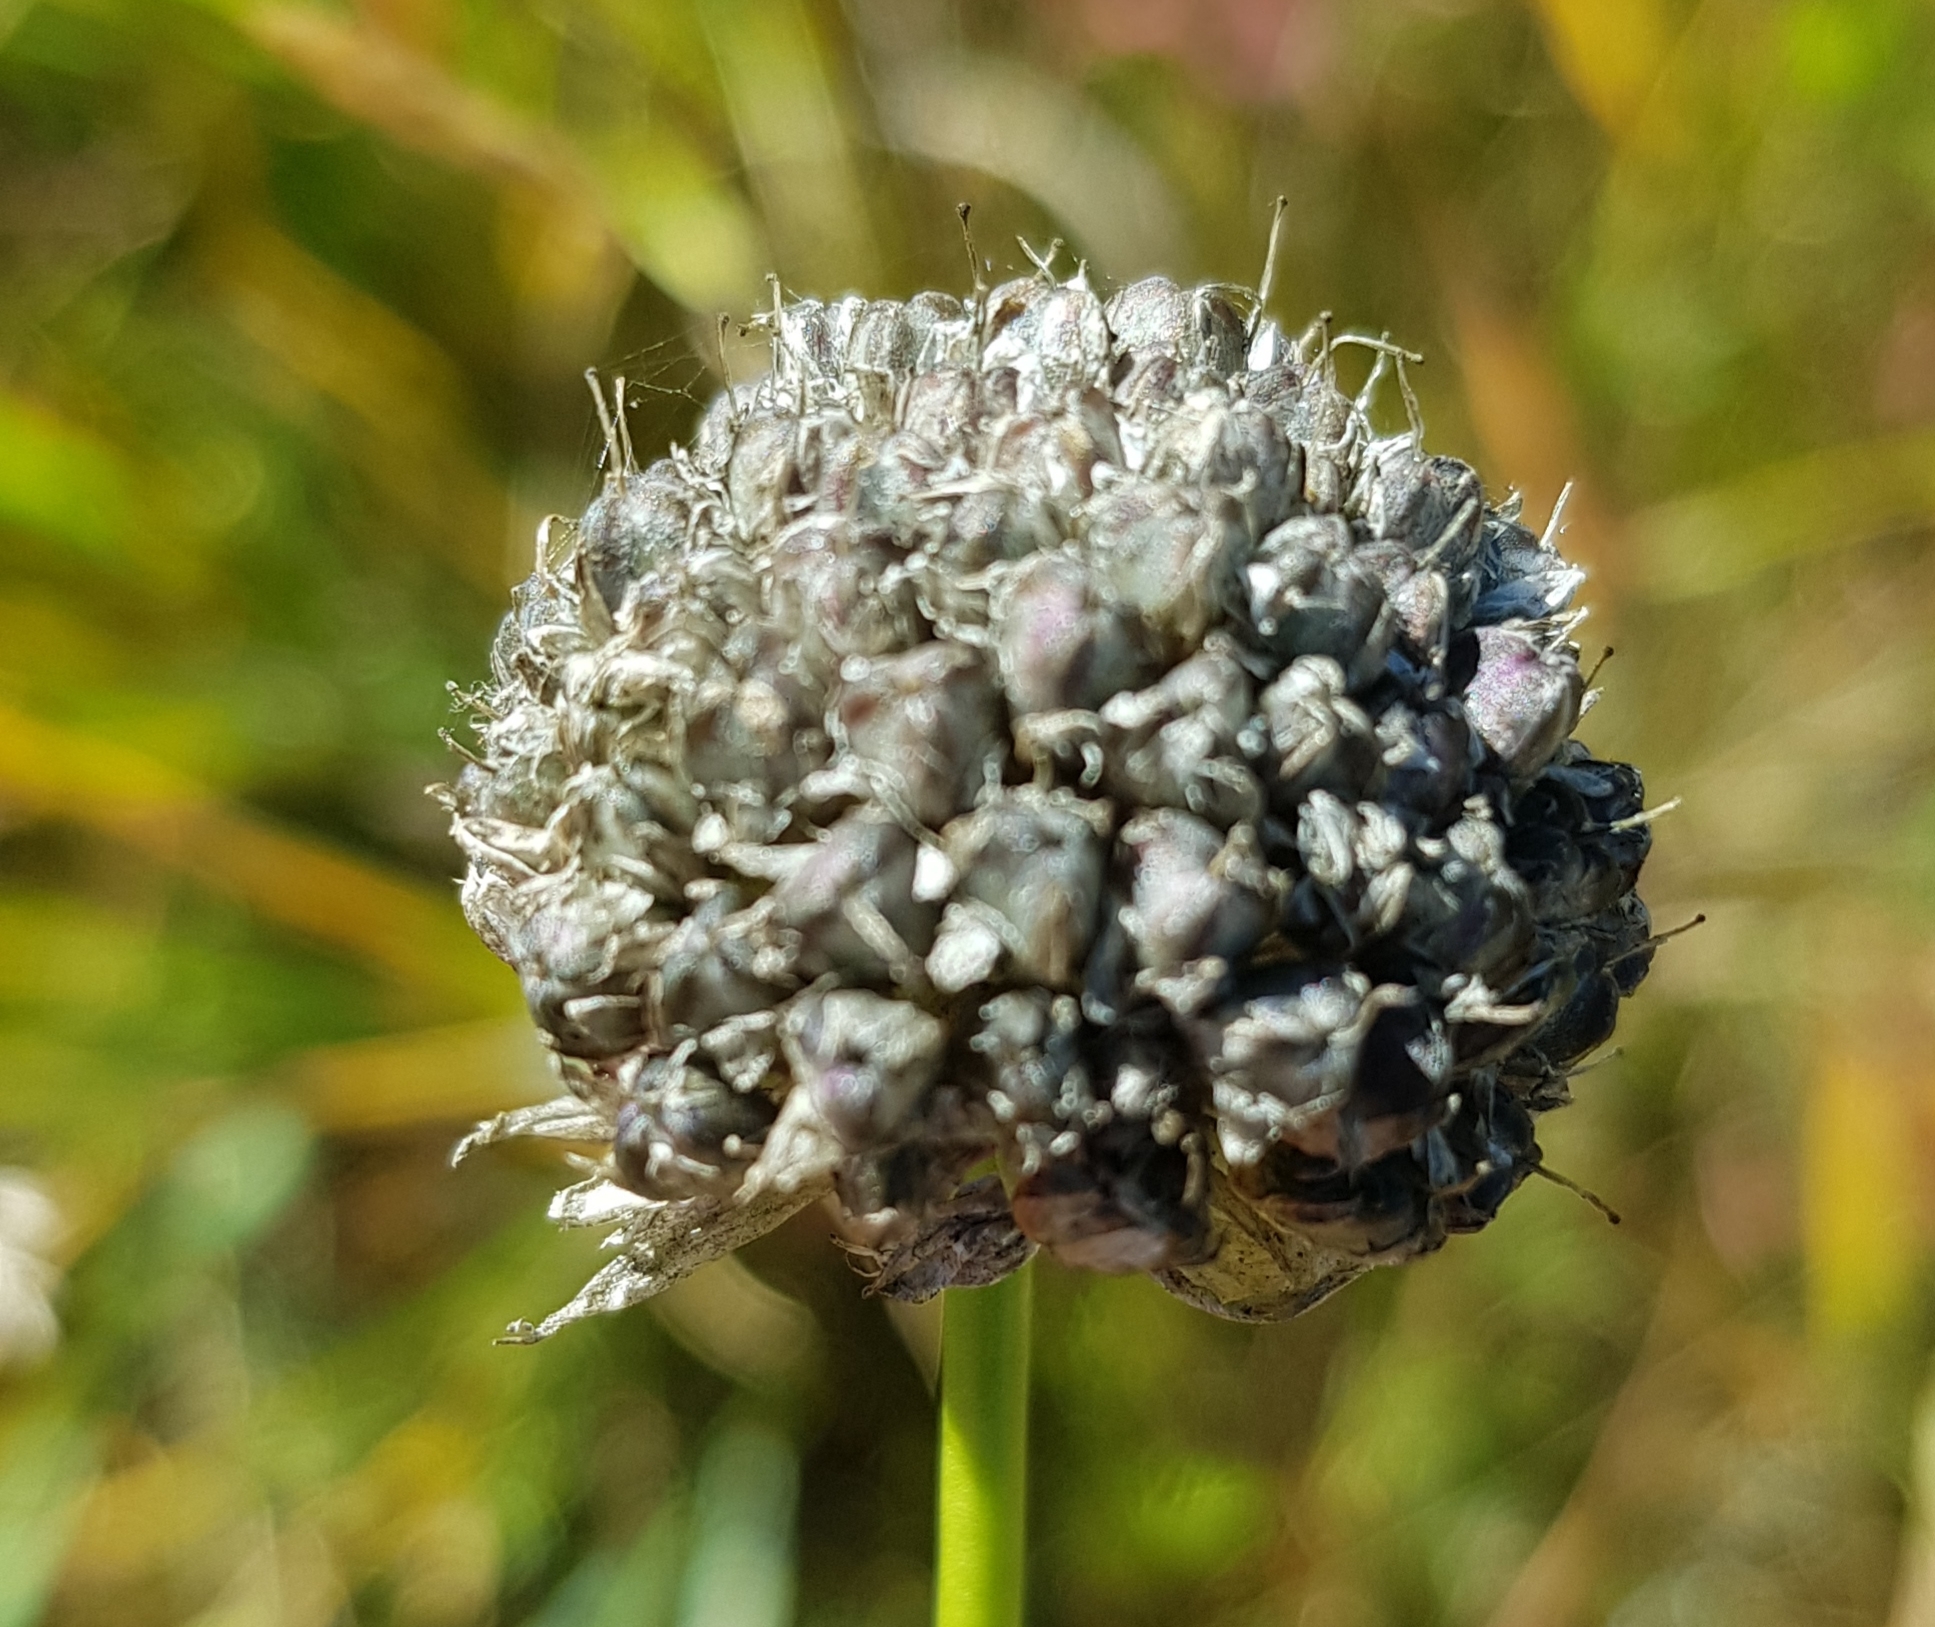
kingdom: Plantae
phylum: Tracheophyta
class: Liliopsida
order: Asparagales
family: Amaryllidaceae
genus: Allium
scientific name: Allium strictum
